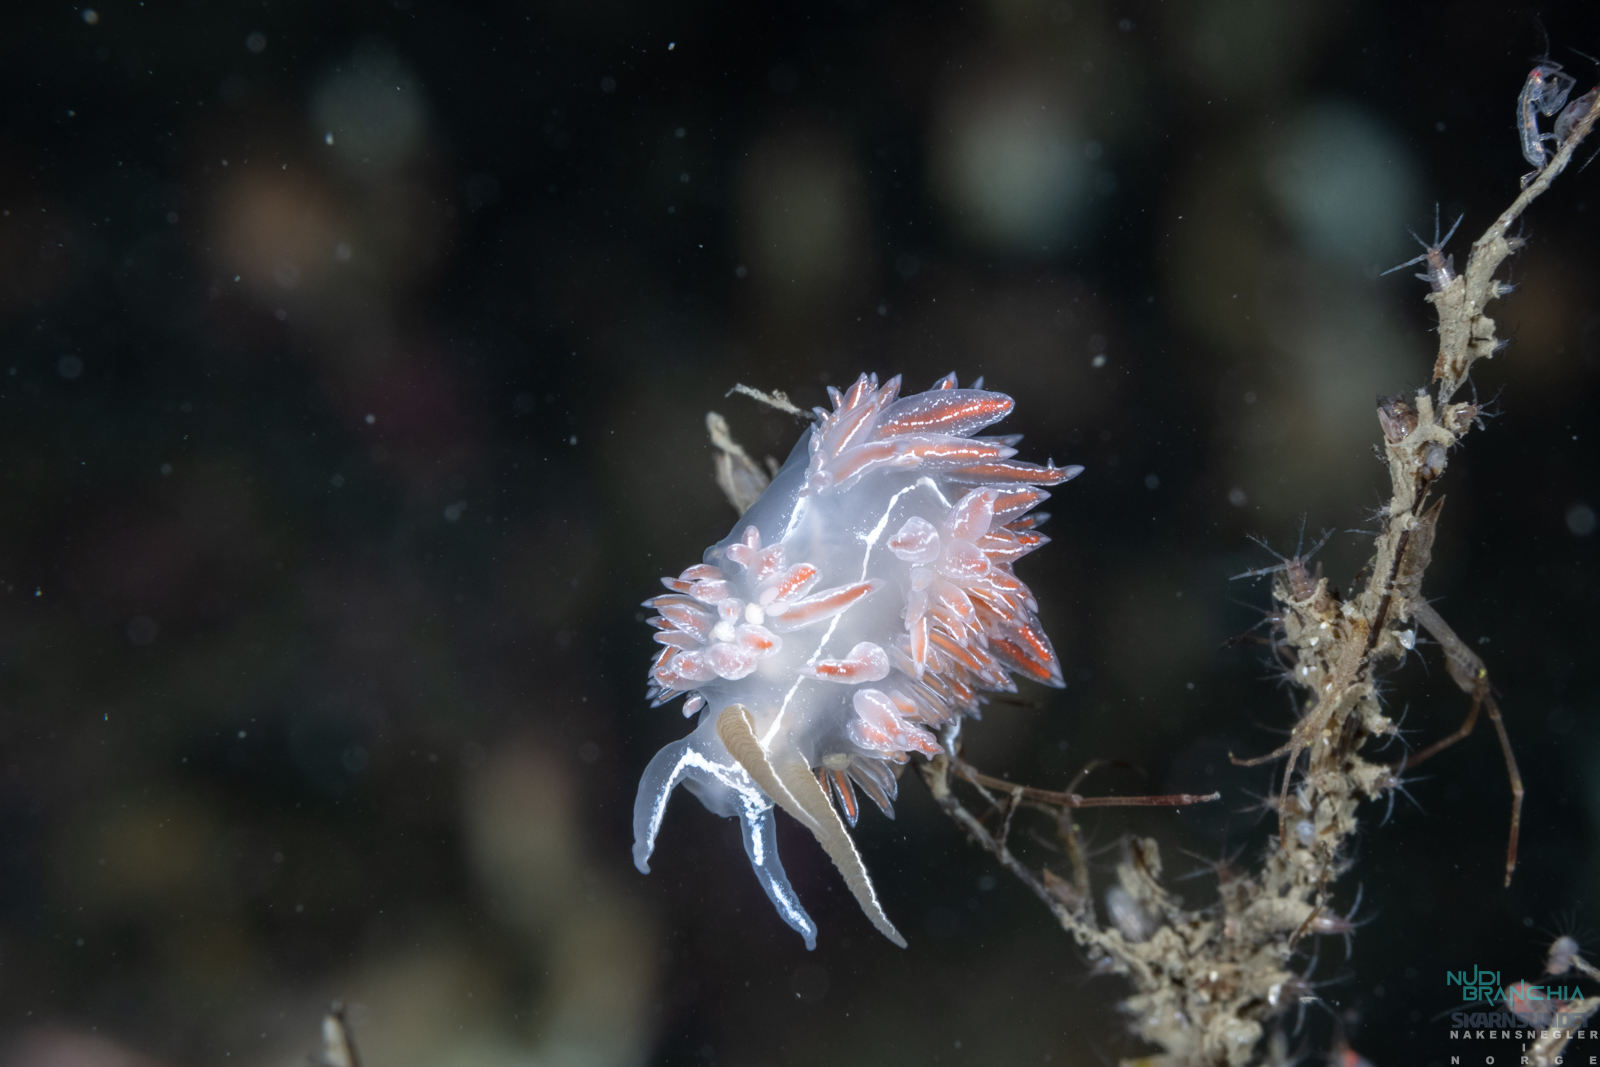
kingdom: Animalia
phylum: Mollusca
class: Gastropoda
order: Nudibranchia
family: Coryphellidae
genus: Coryphella
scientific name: Coryphella chriskaugei
